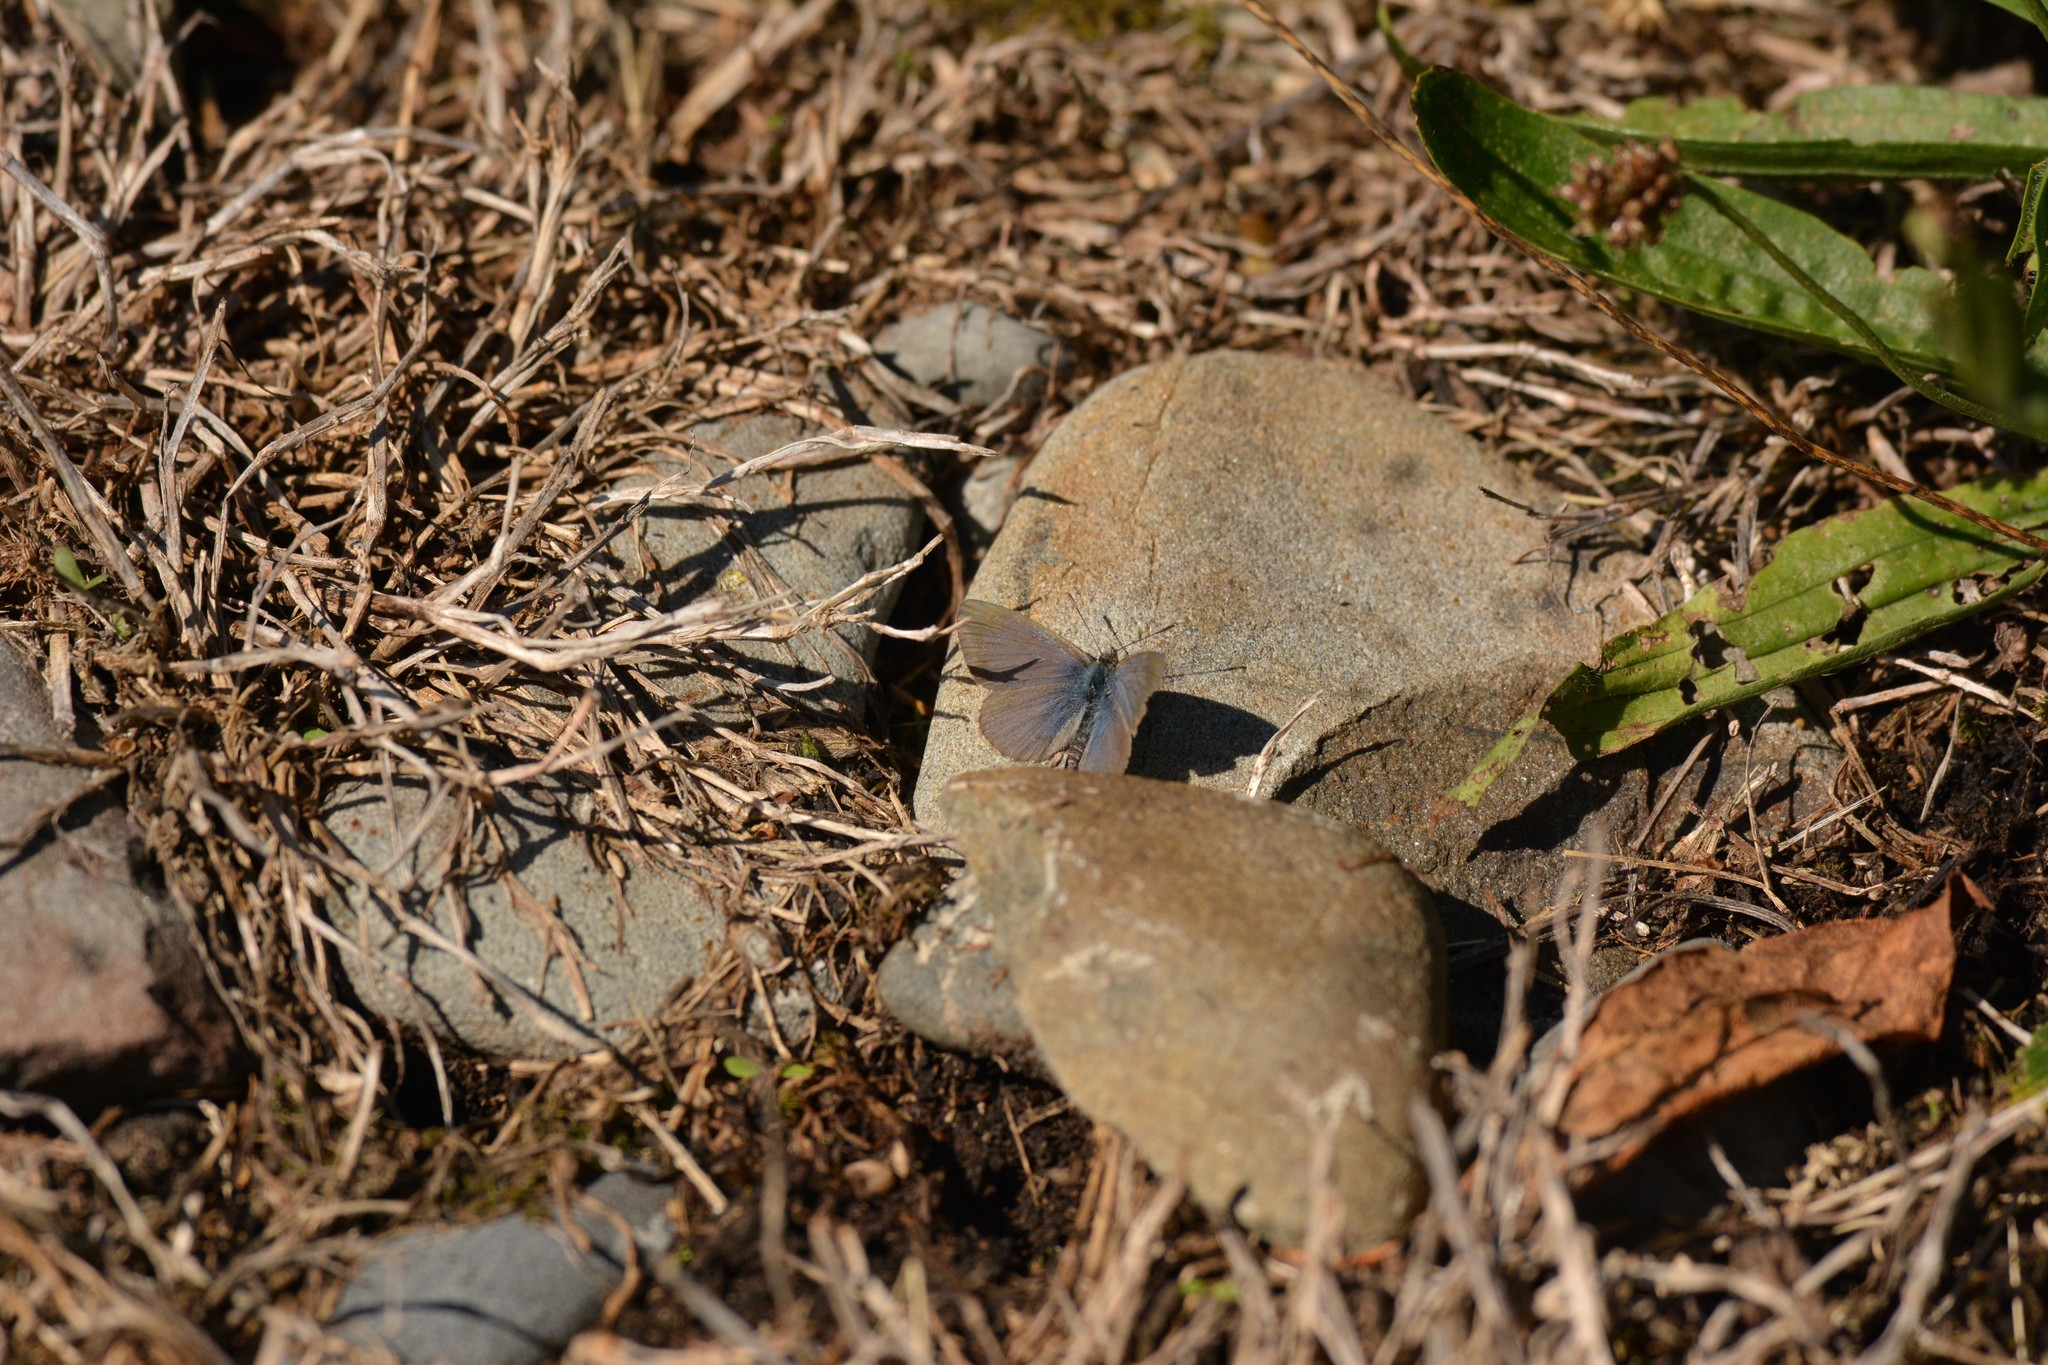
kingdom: Animalia
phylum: Arthropoda
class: Insecta
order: Lepidoptera
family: Lycaenidae
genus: Zizina
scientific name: Zizina otis
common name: Lesser grass blue
